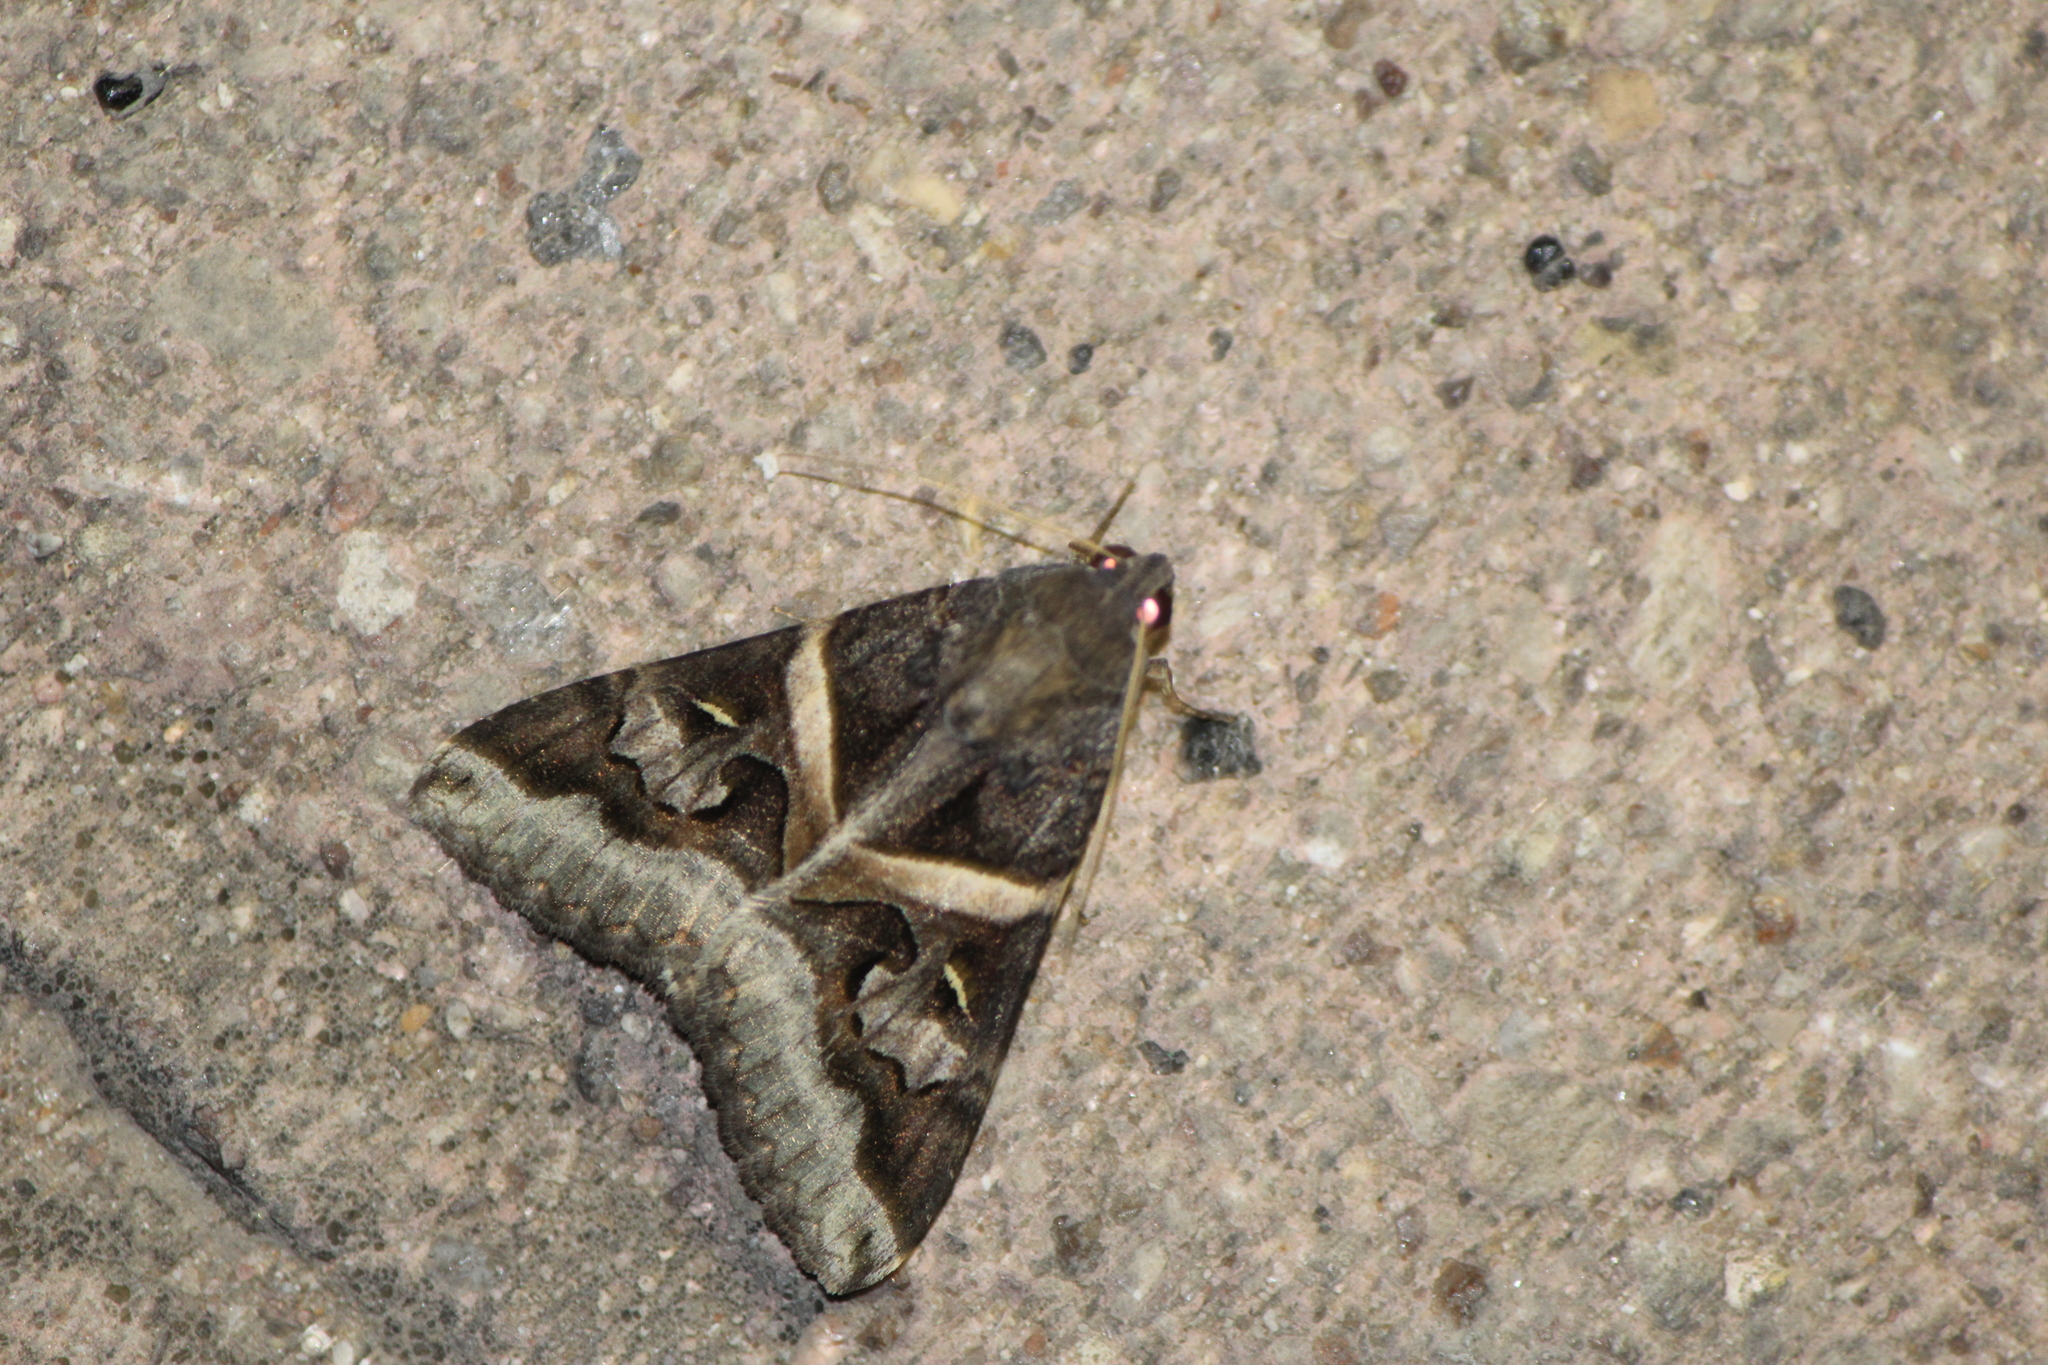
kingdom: Animalia
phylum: Arthropoda
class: Insecta
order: Lepidoptera
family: Erebidae
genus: Melipotis
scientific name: Melipotis indomita
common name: Moth
